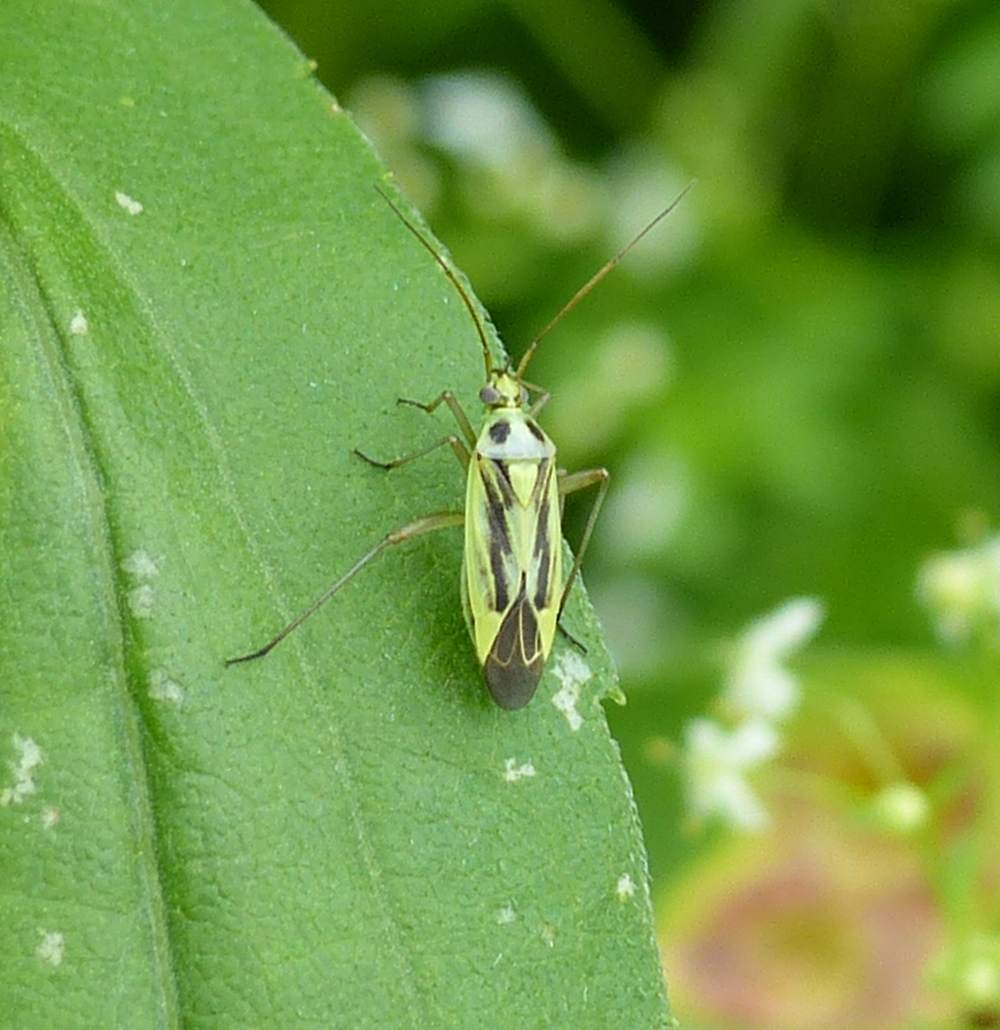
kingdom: Animalia
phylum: Arthropoda
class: Insecta
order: Hemiptera
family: Miridae
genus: Stenotus
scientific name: Stenotus binotatus
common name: Plant bug
